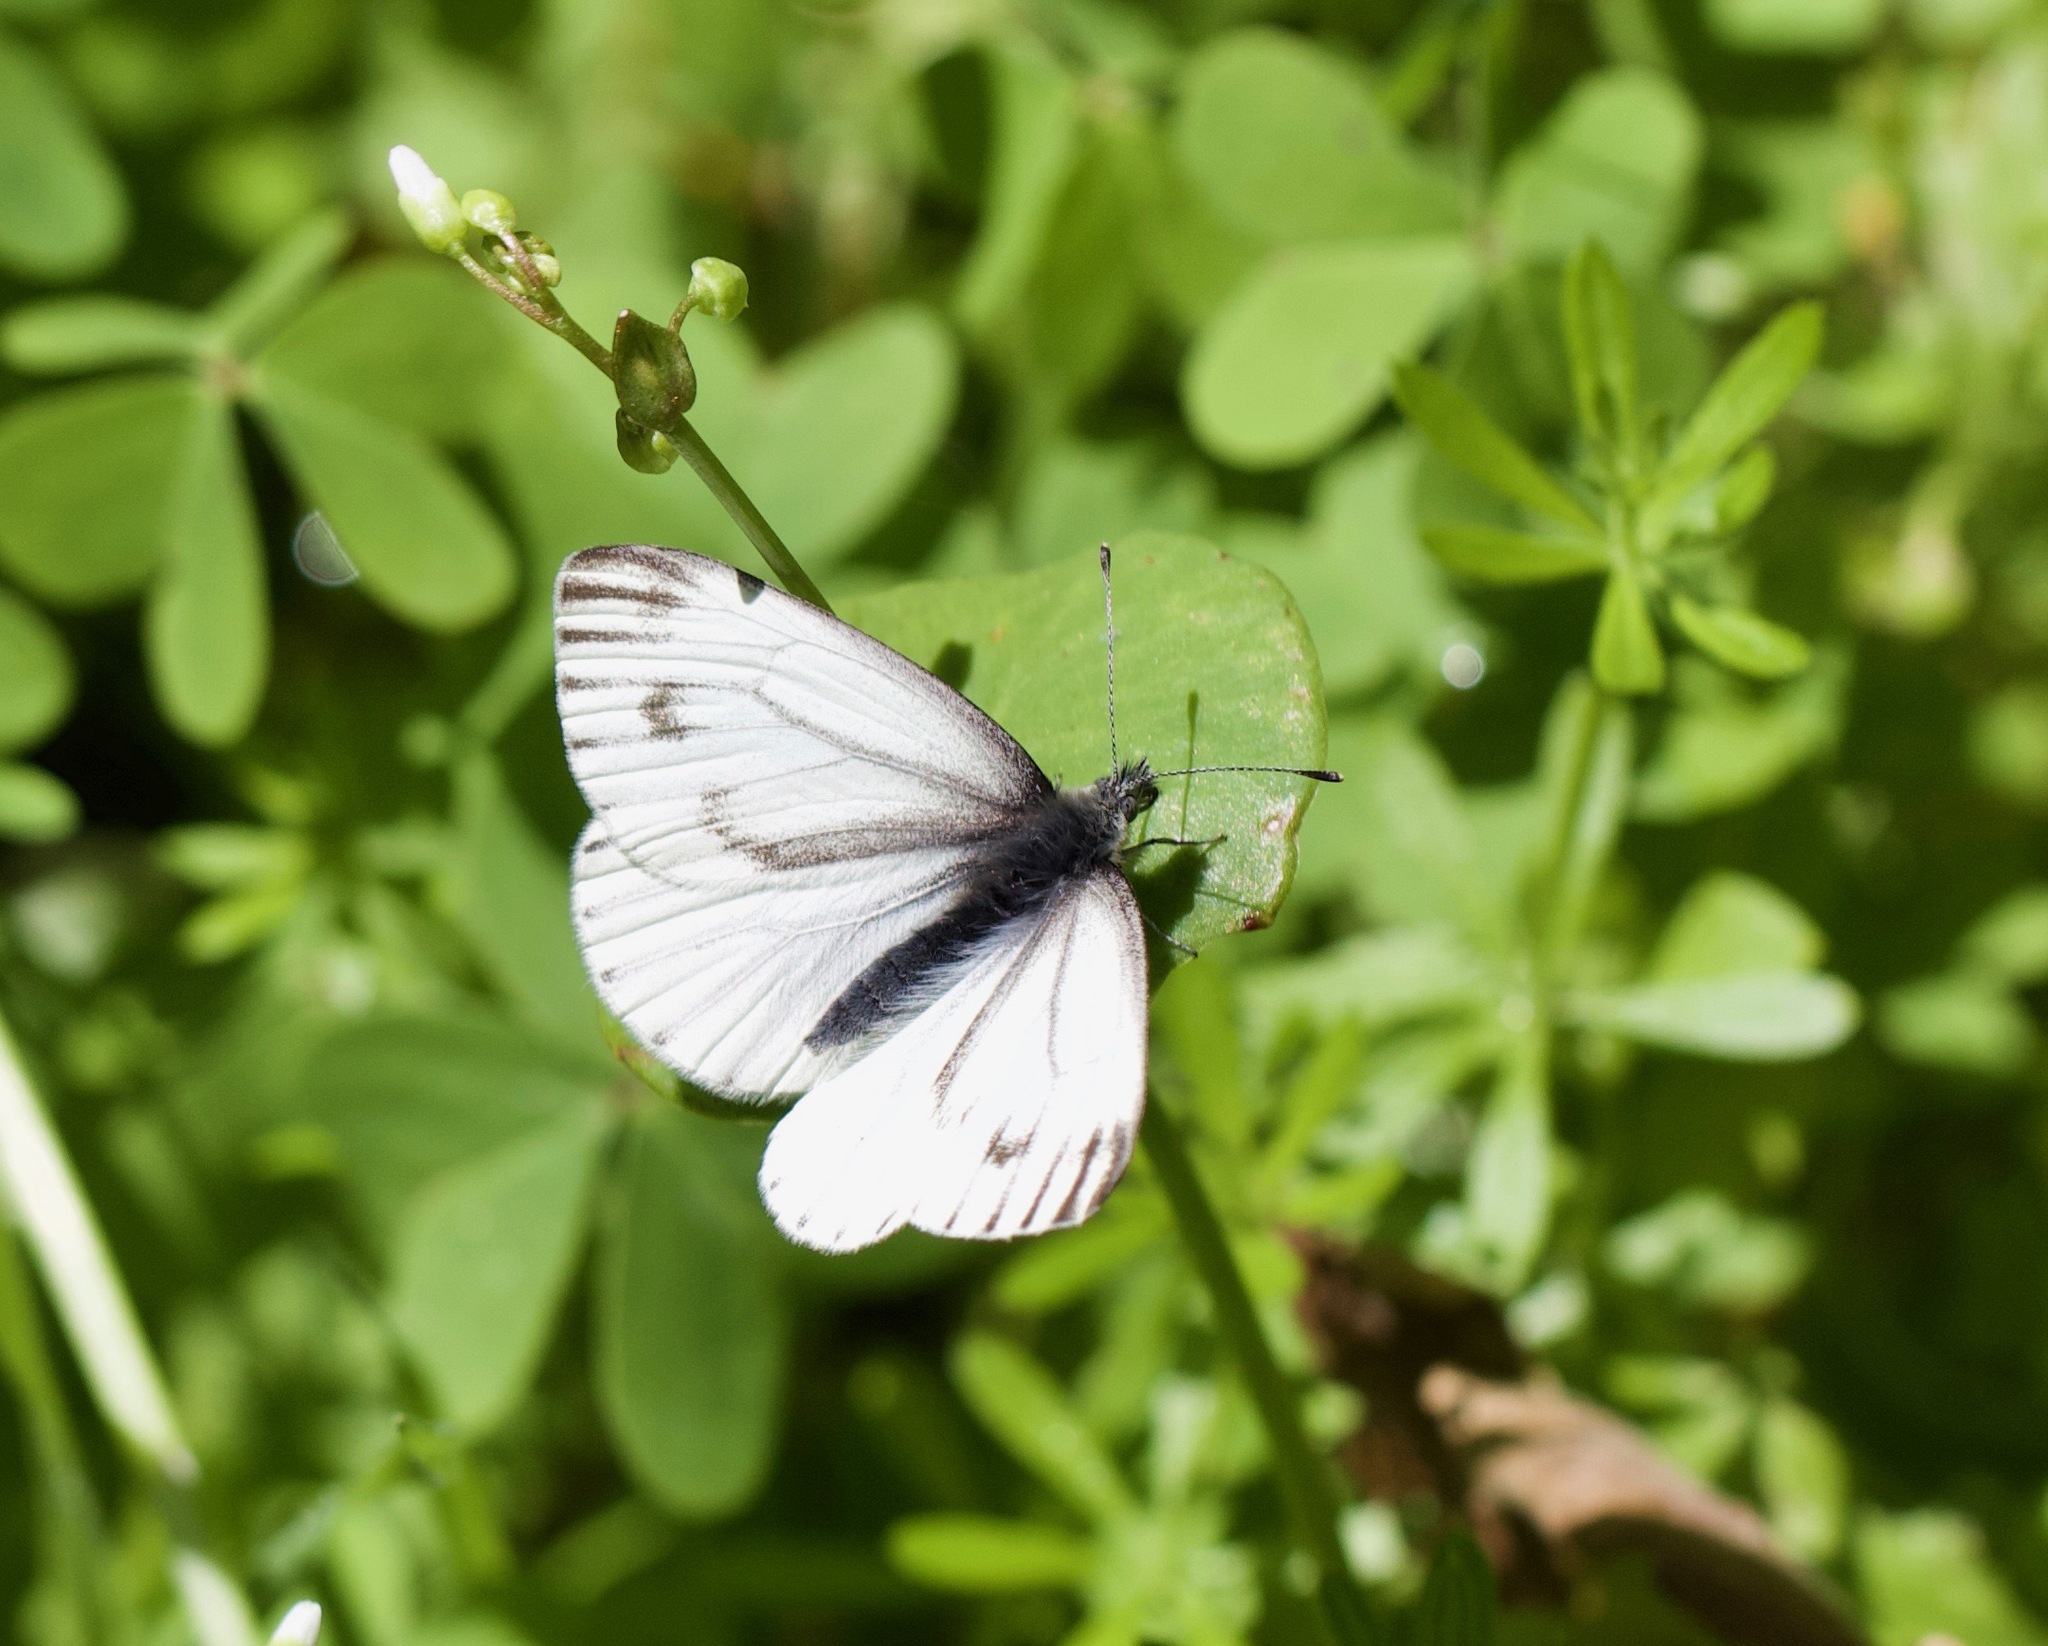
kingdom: Animalia
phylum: Arthropoda
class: Insecta
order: Lepidoptera
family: Pieridae
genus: Pieris
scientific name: Pieris marginalis
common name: Margined white
